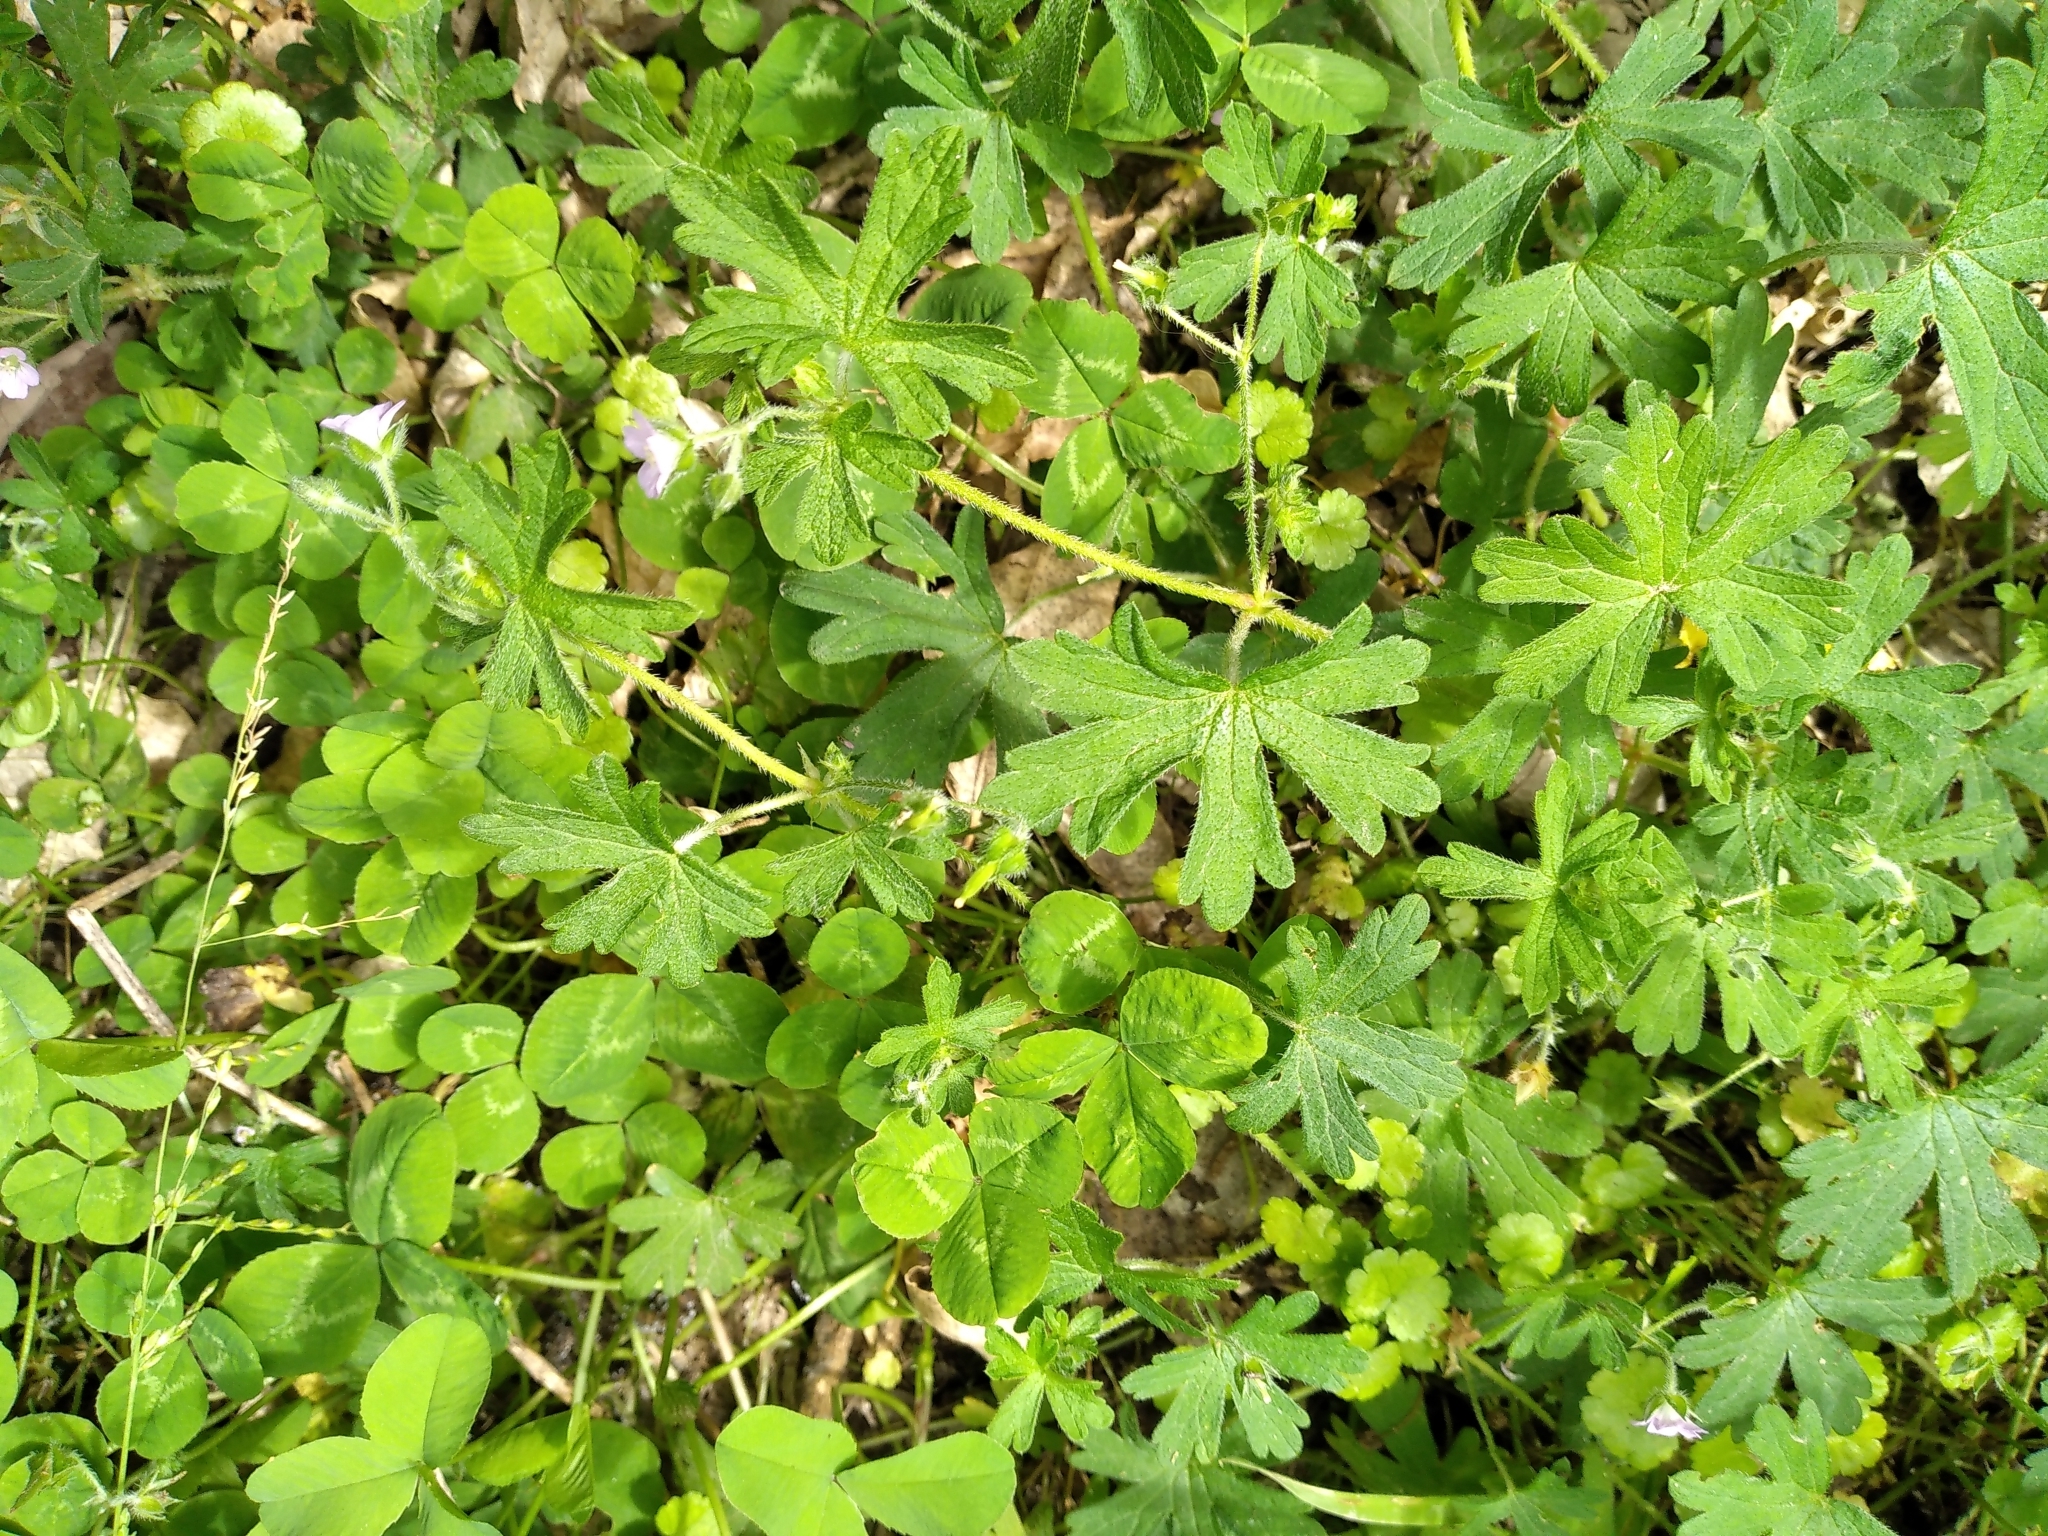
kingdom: Plantae
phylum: Tracheophyta
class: Magnoliopsida
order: Geraniales
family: Geraniaceae
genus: Geranium
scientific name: Geranium gardneri
